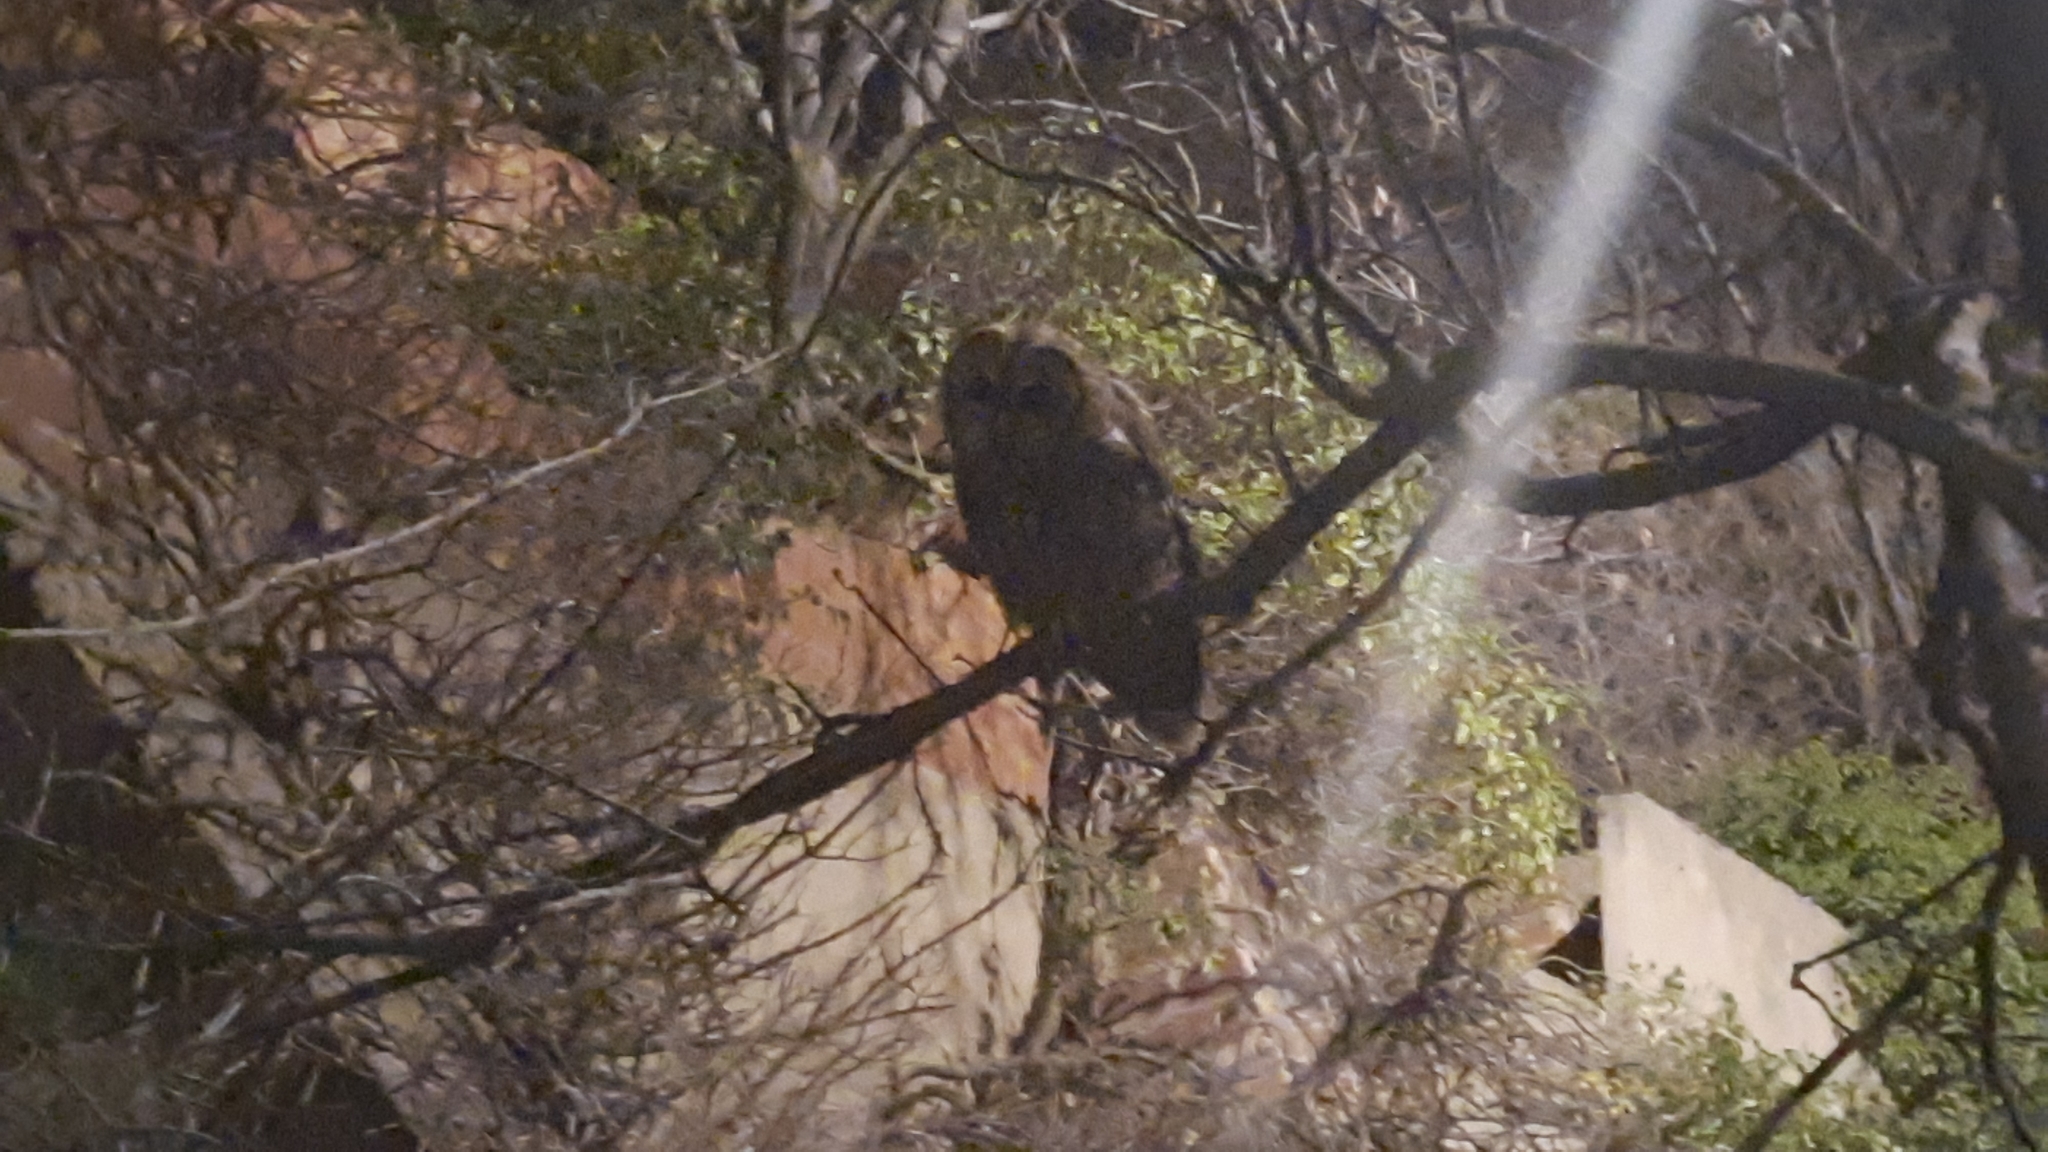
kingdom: Animalia
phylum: Chordata
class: Aves
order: Strigiformes
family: Strigidae
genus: Strix
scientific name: Strix aluco
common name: Tawny owl
